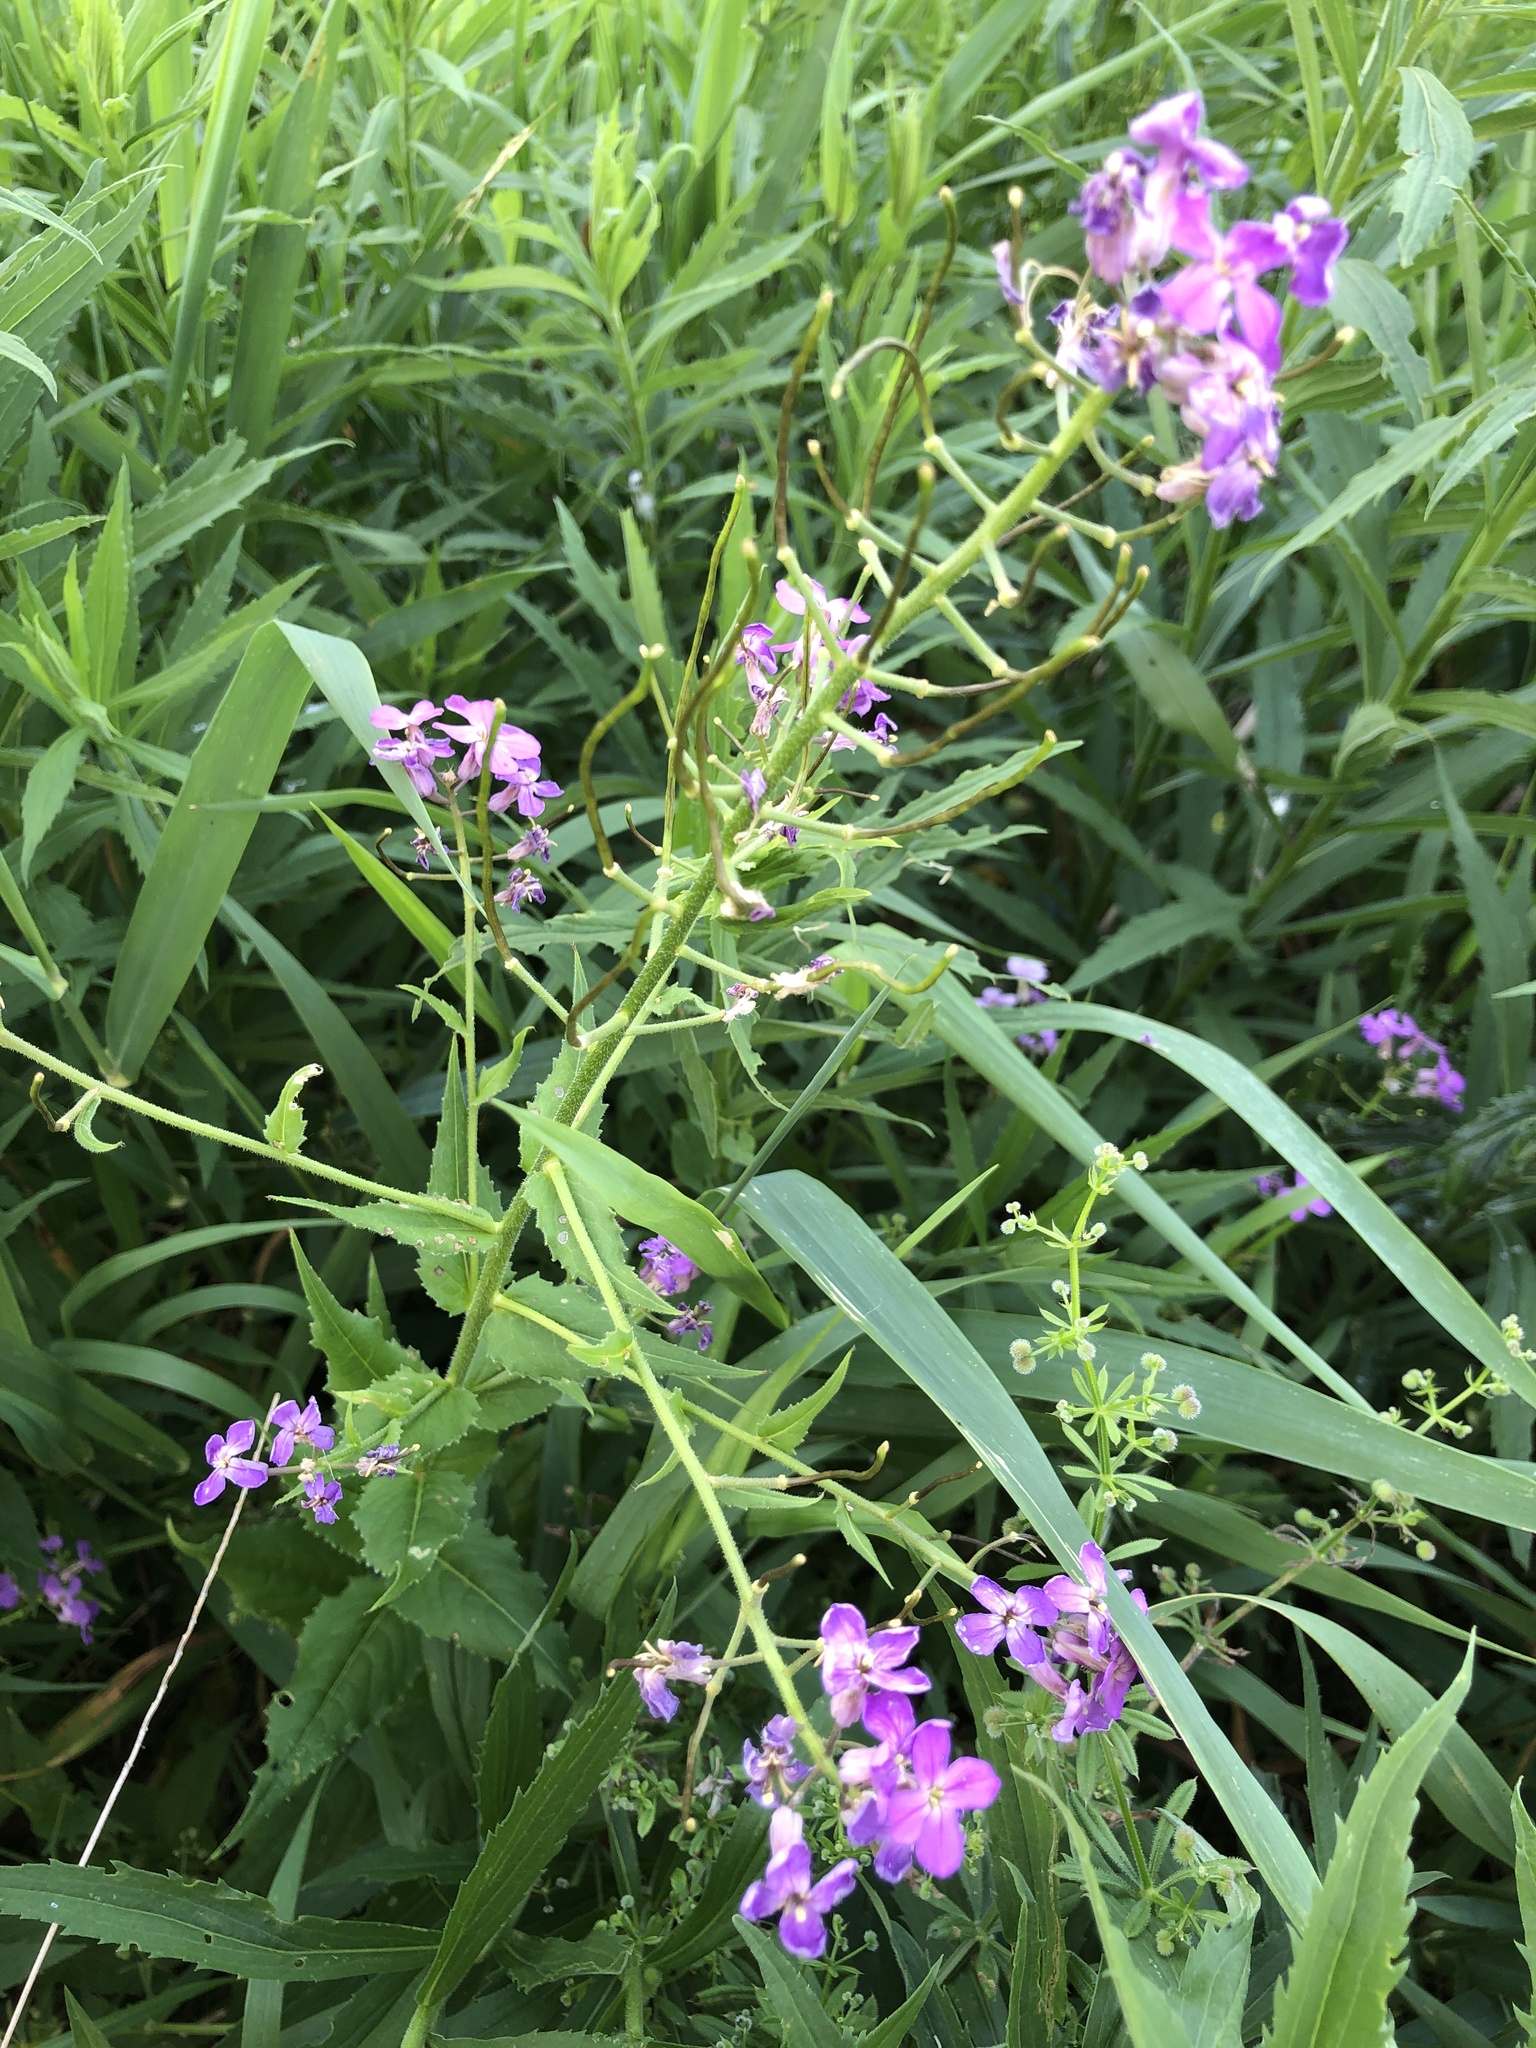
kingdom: Plantae
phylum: Tracheophyta
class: Magnoliopsida
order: Brassicales
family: Brassicaceae
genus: Hesperis
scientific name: Hesperis matronalis
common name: Dame's-violet
